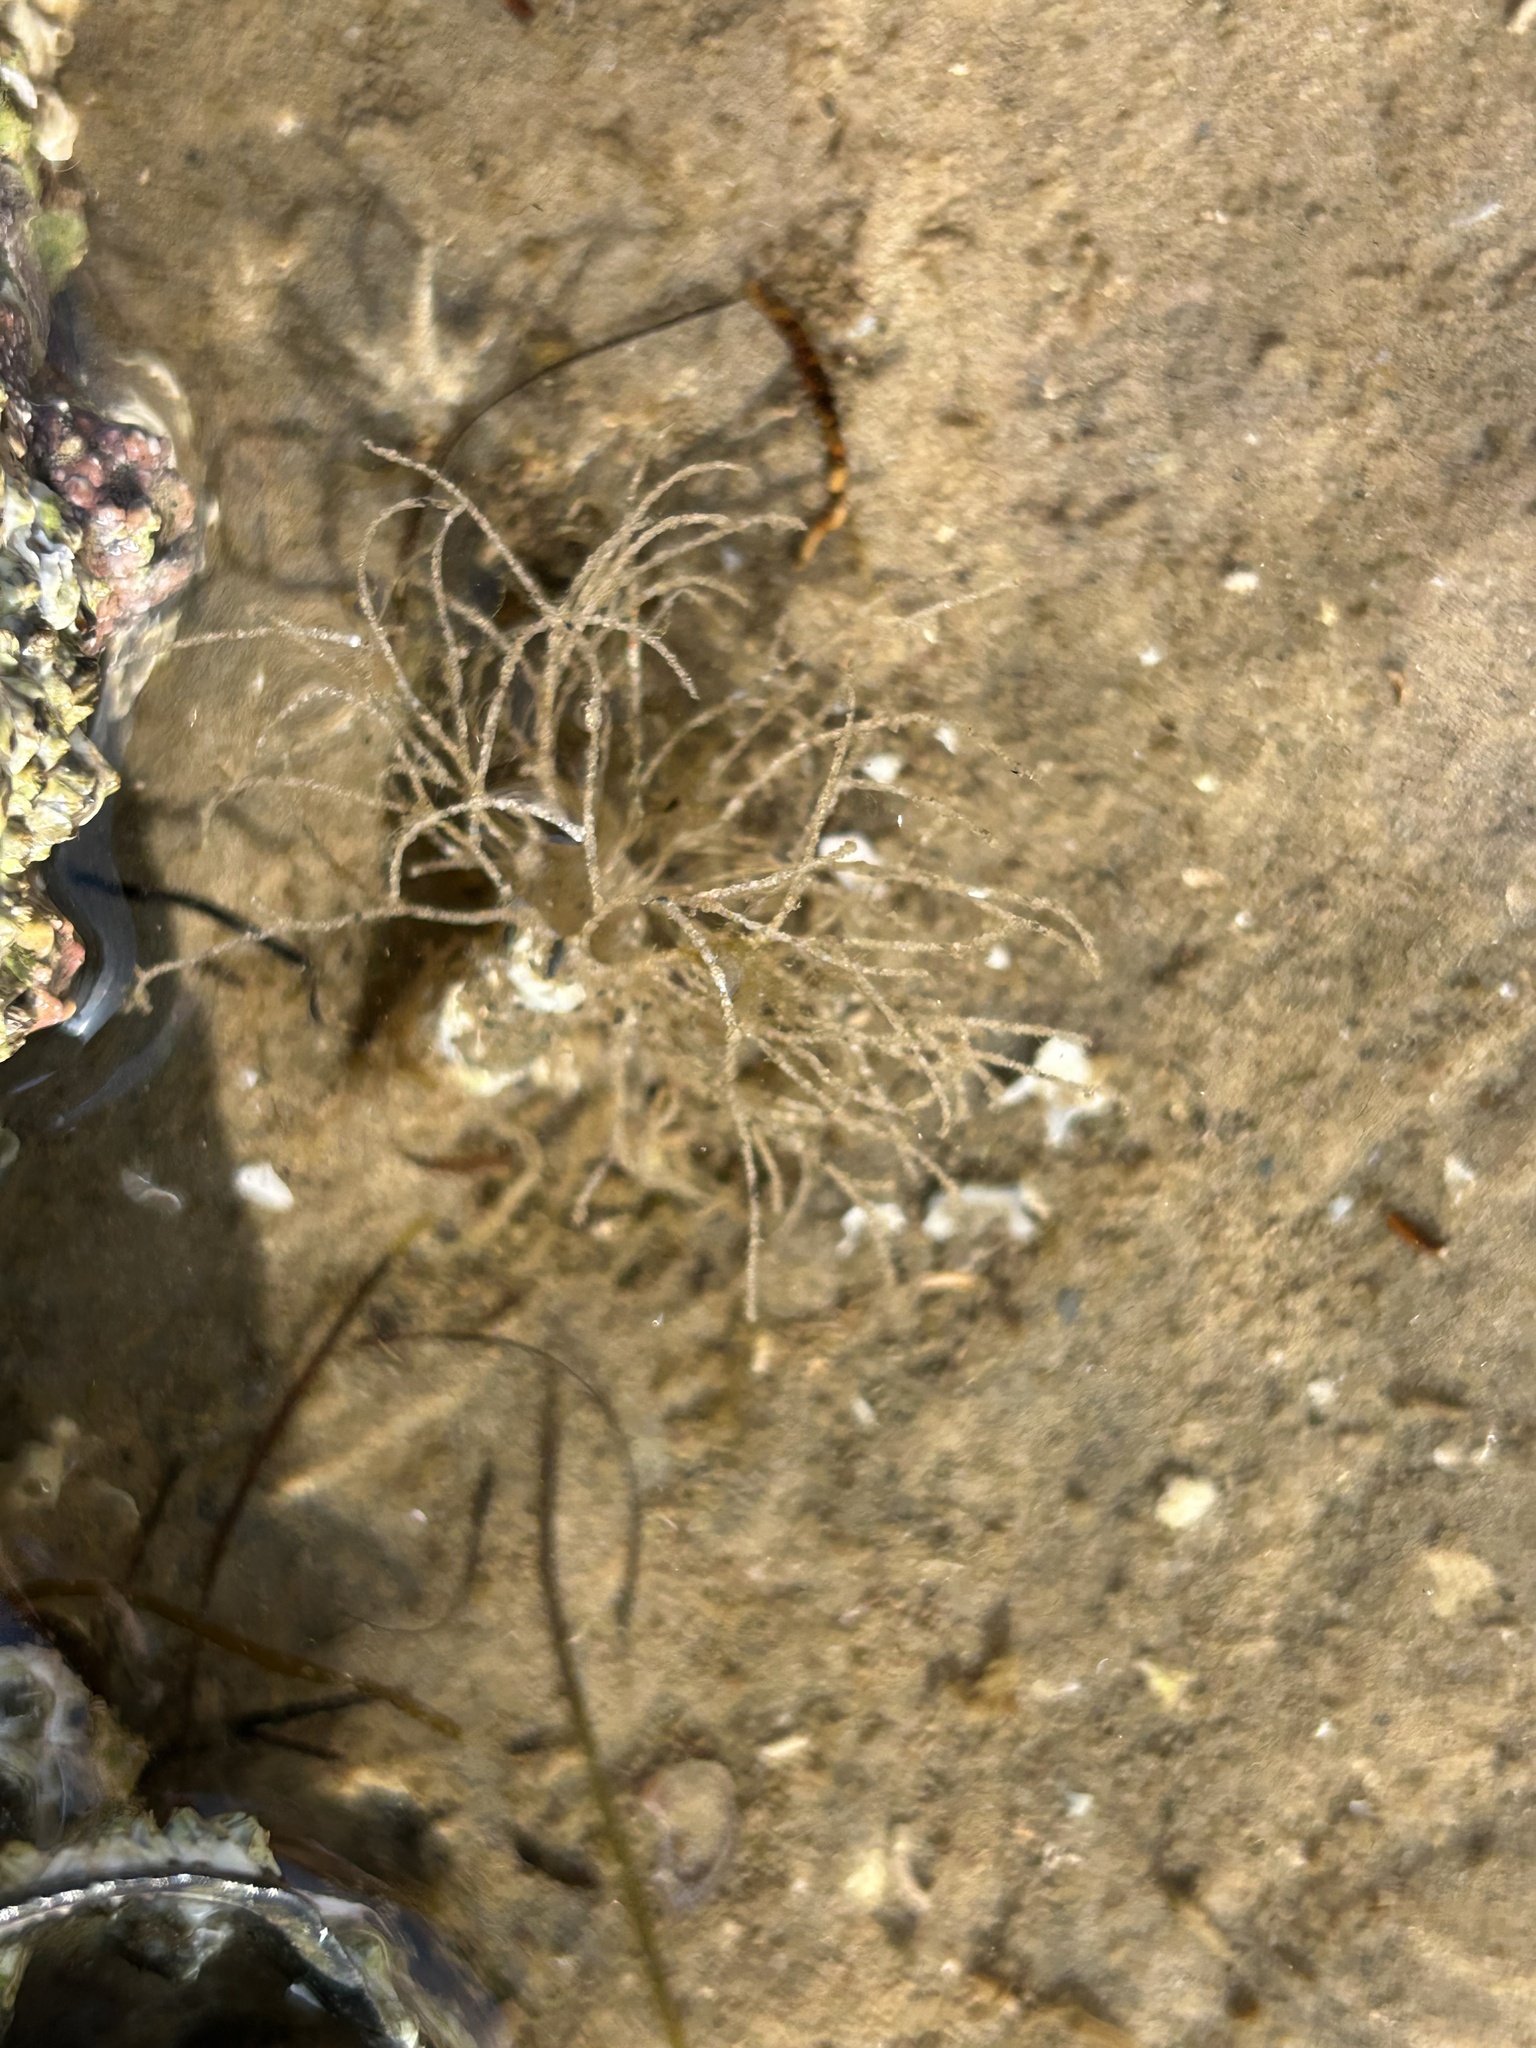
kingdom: Animalia
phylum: Annelida
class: Polychaeta
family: Terebellidae
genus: Lanice
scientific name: Lanice conchilega
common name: Sand mason
